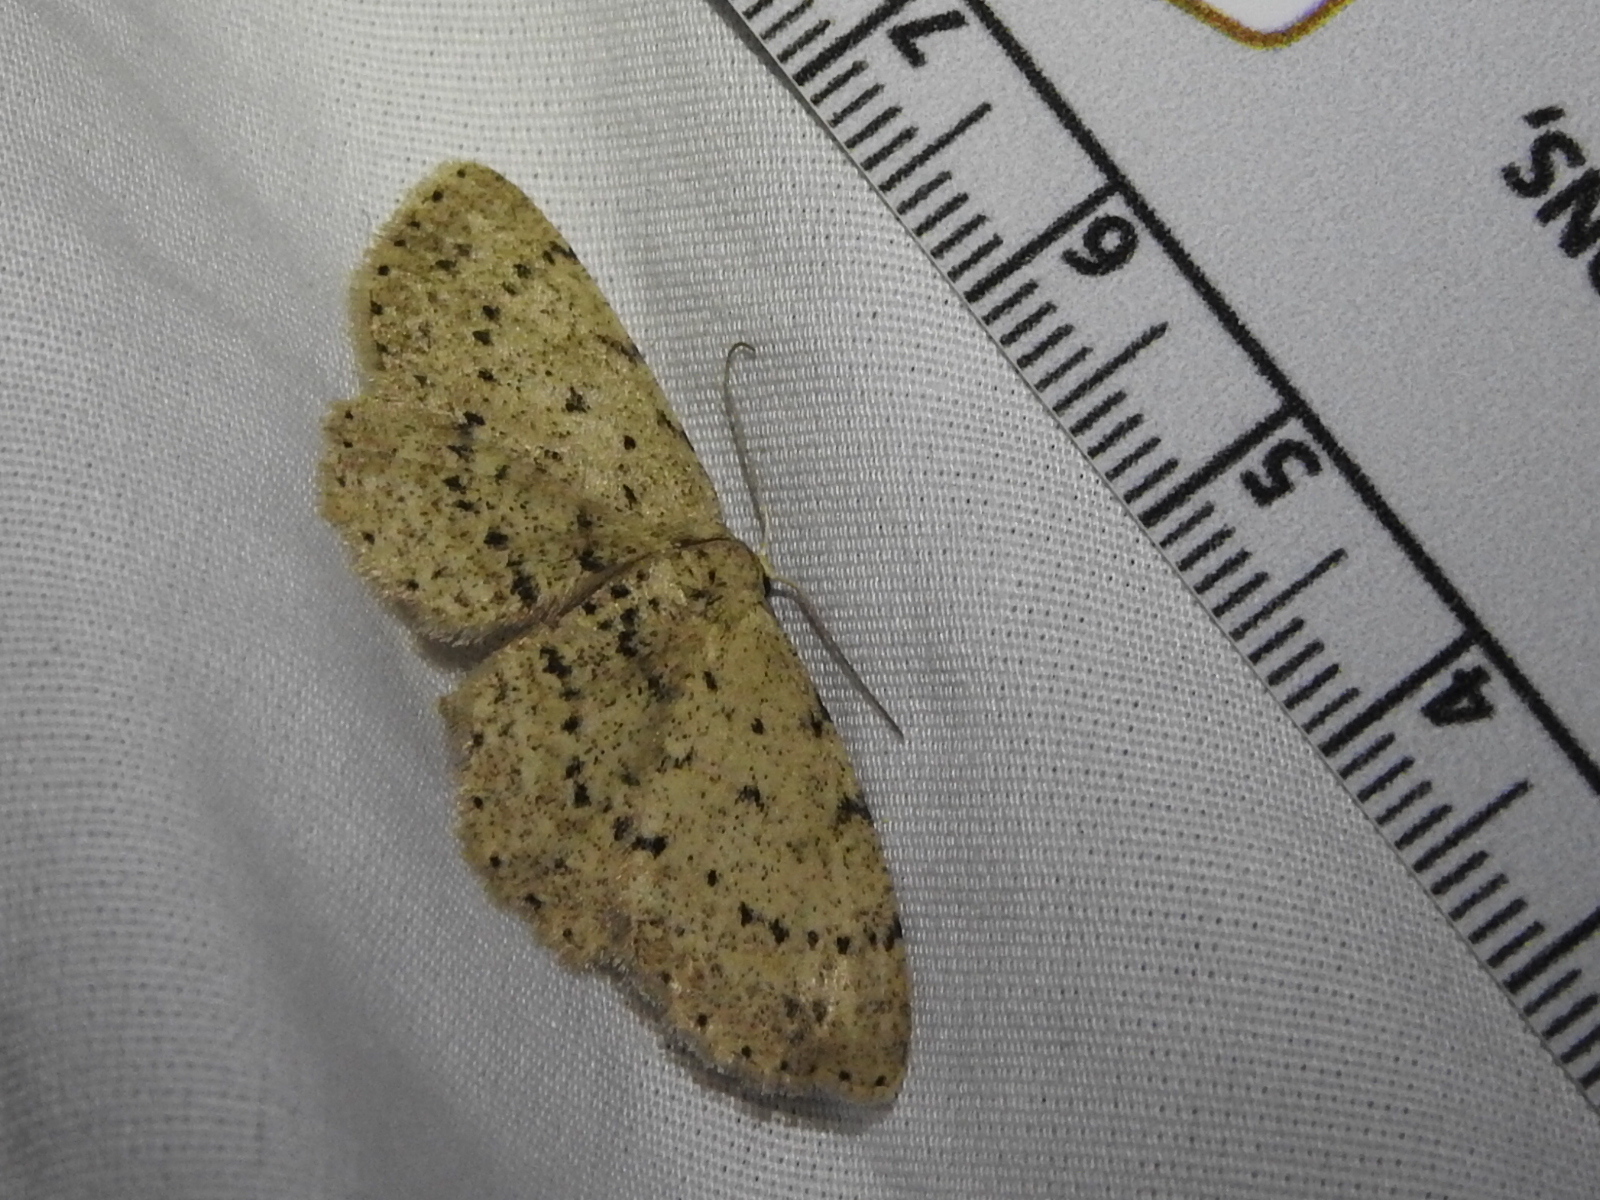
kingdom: Animalia
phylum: Arthropoda
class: Insecta
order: Lepidoptera
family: Geometridae
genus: Glena
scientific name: Glena cribrataria
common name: Dotted gray
